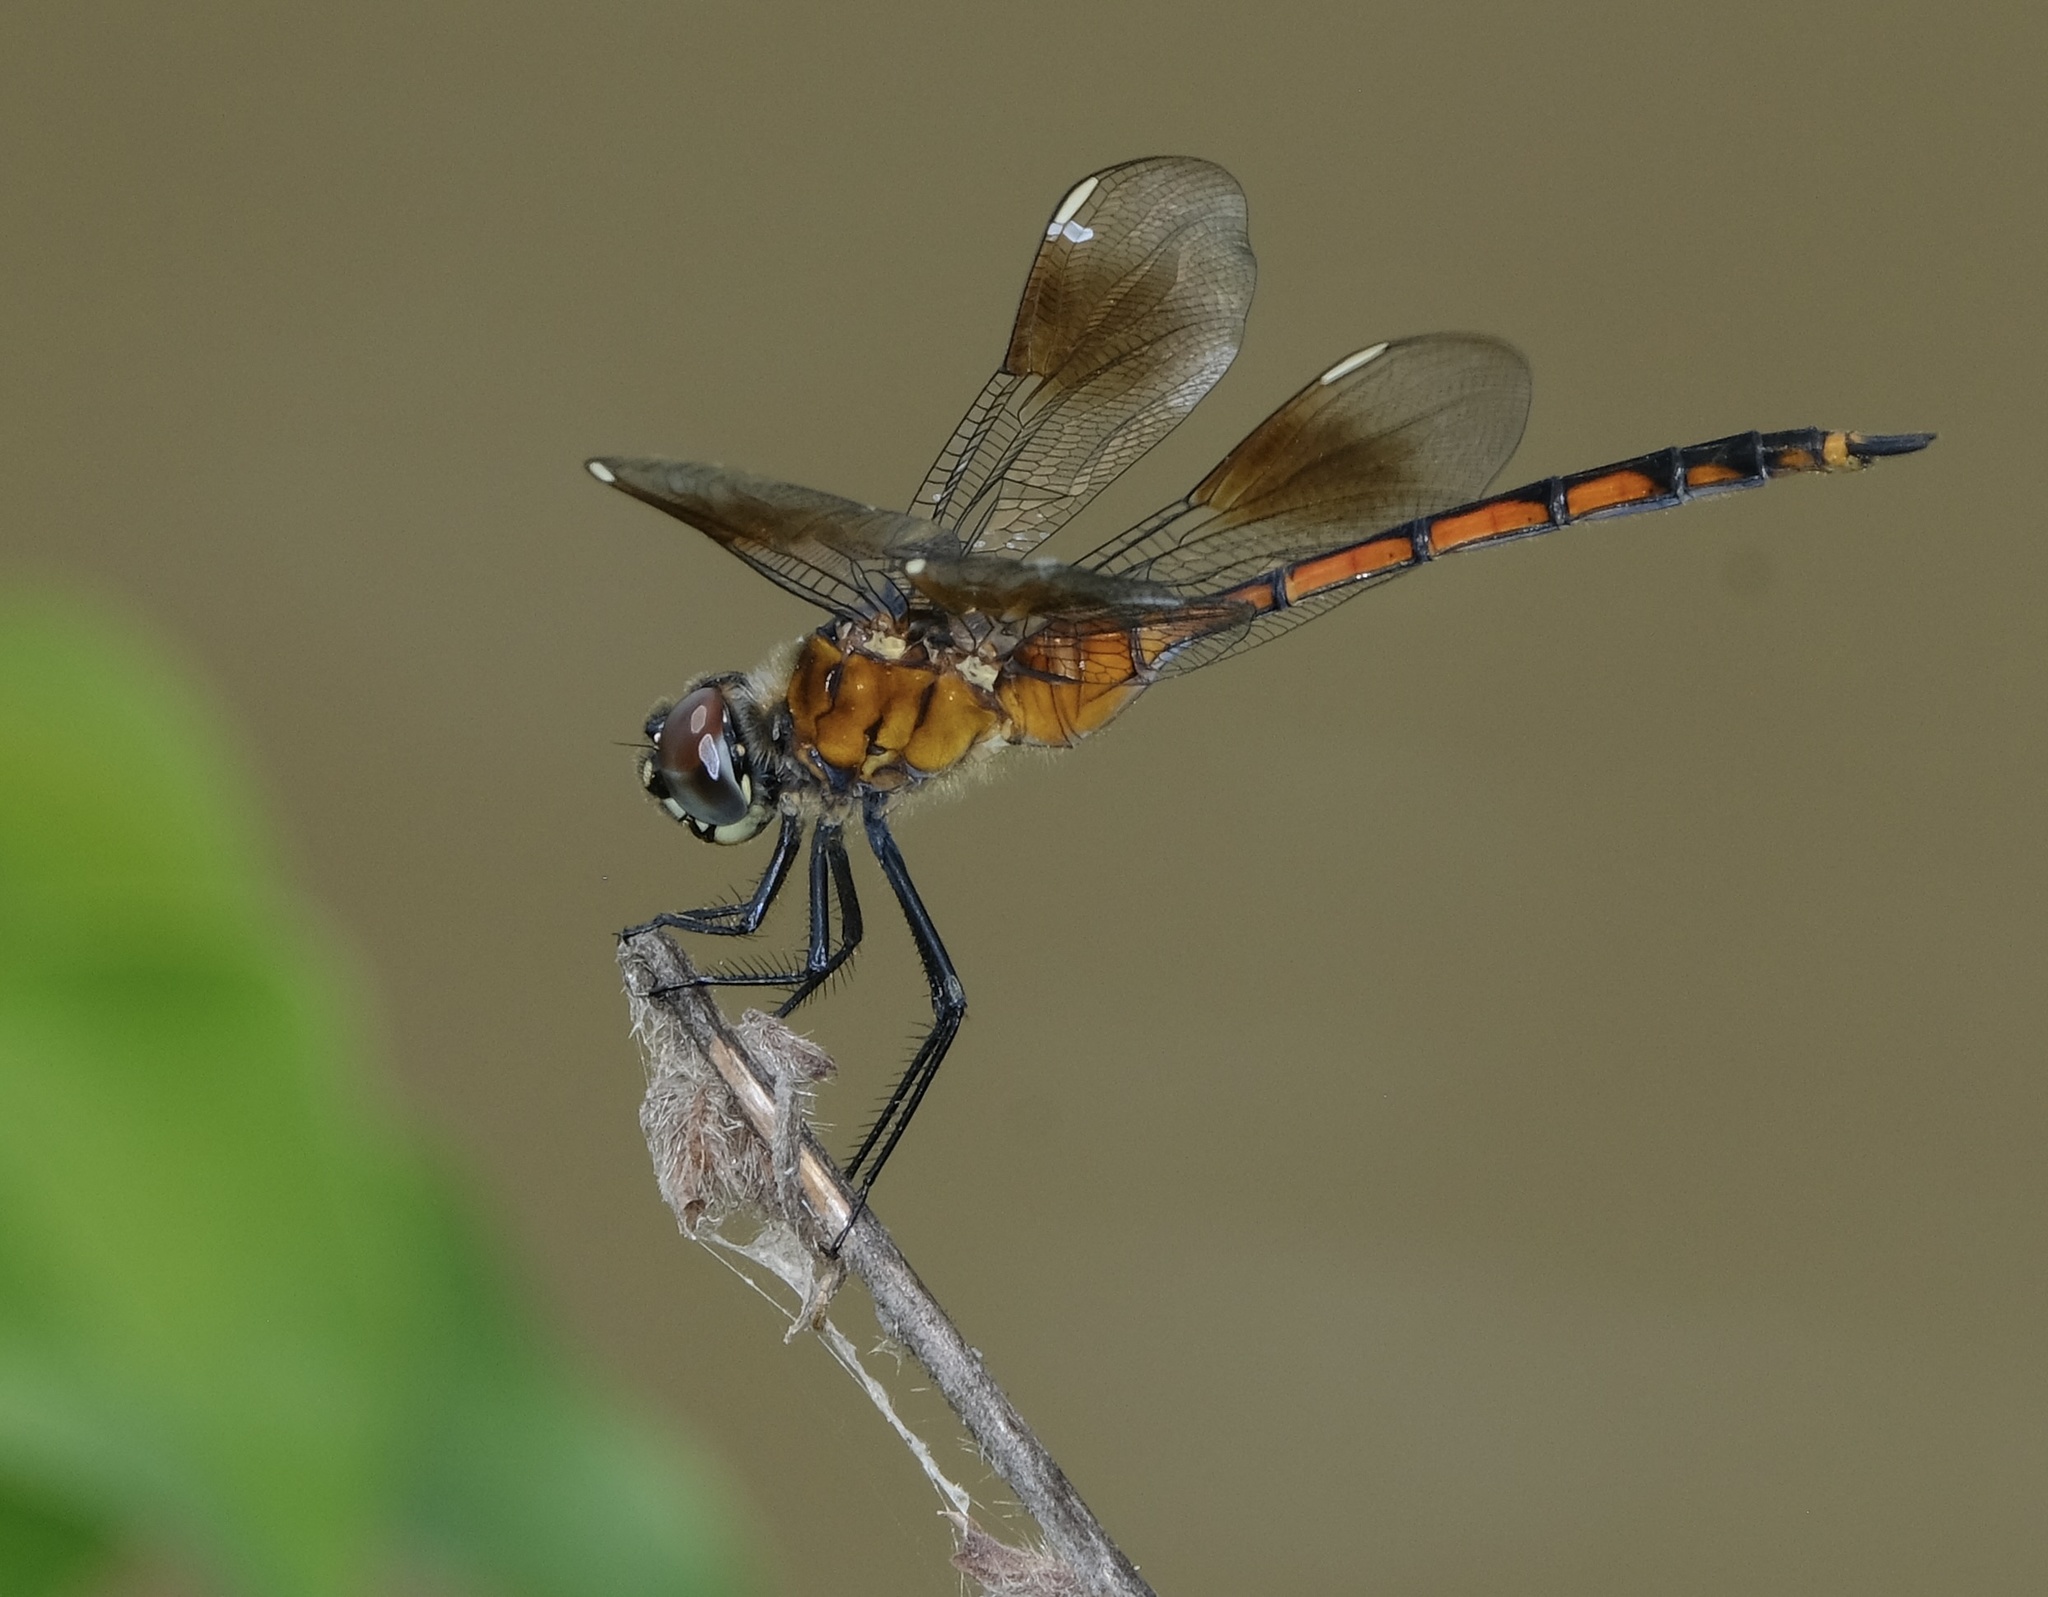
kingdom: Animalia
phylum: Arthropoda
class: Insecta
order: Odonata
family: Libellulidae
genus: Brachymesia
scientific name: Brachymesia gravida
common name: Four-spotted pennant
